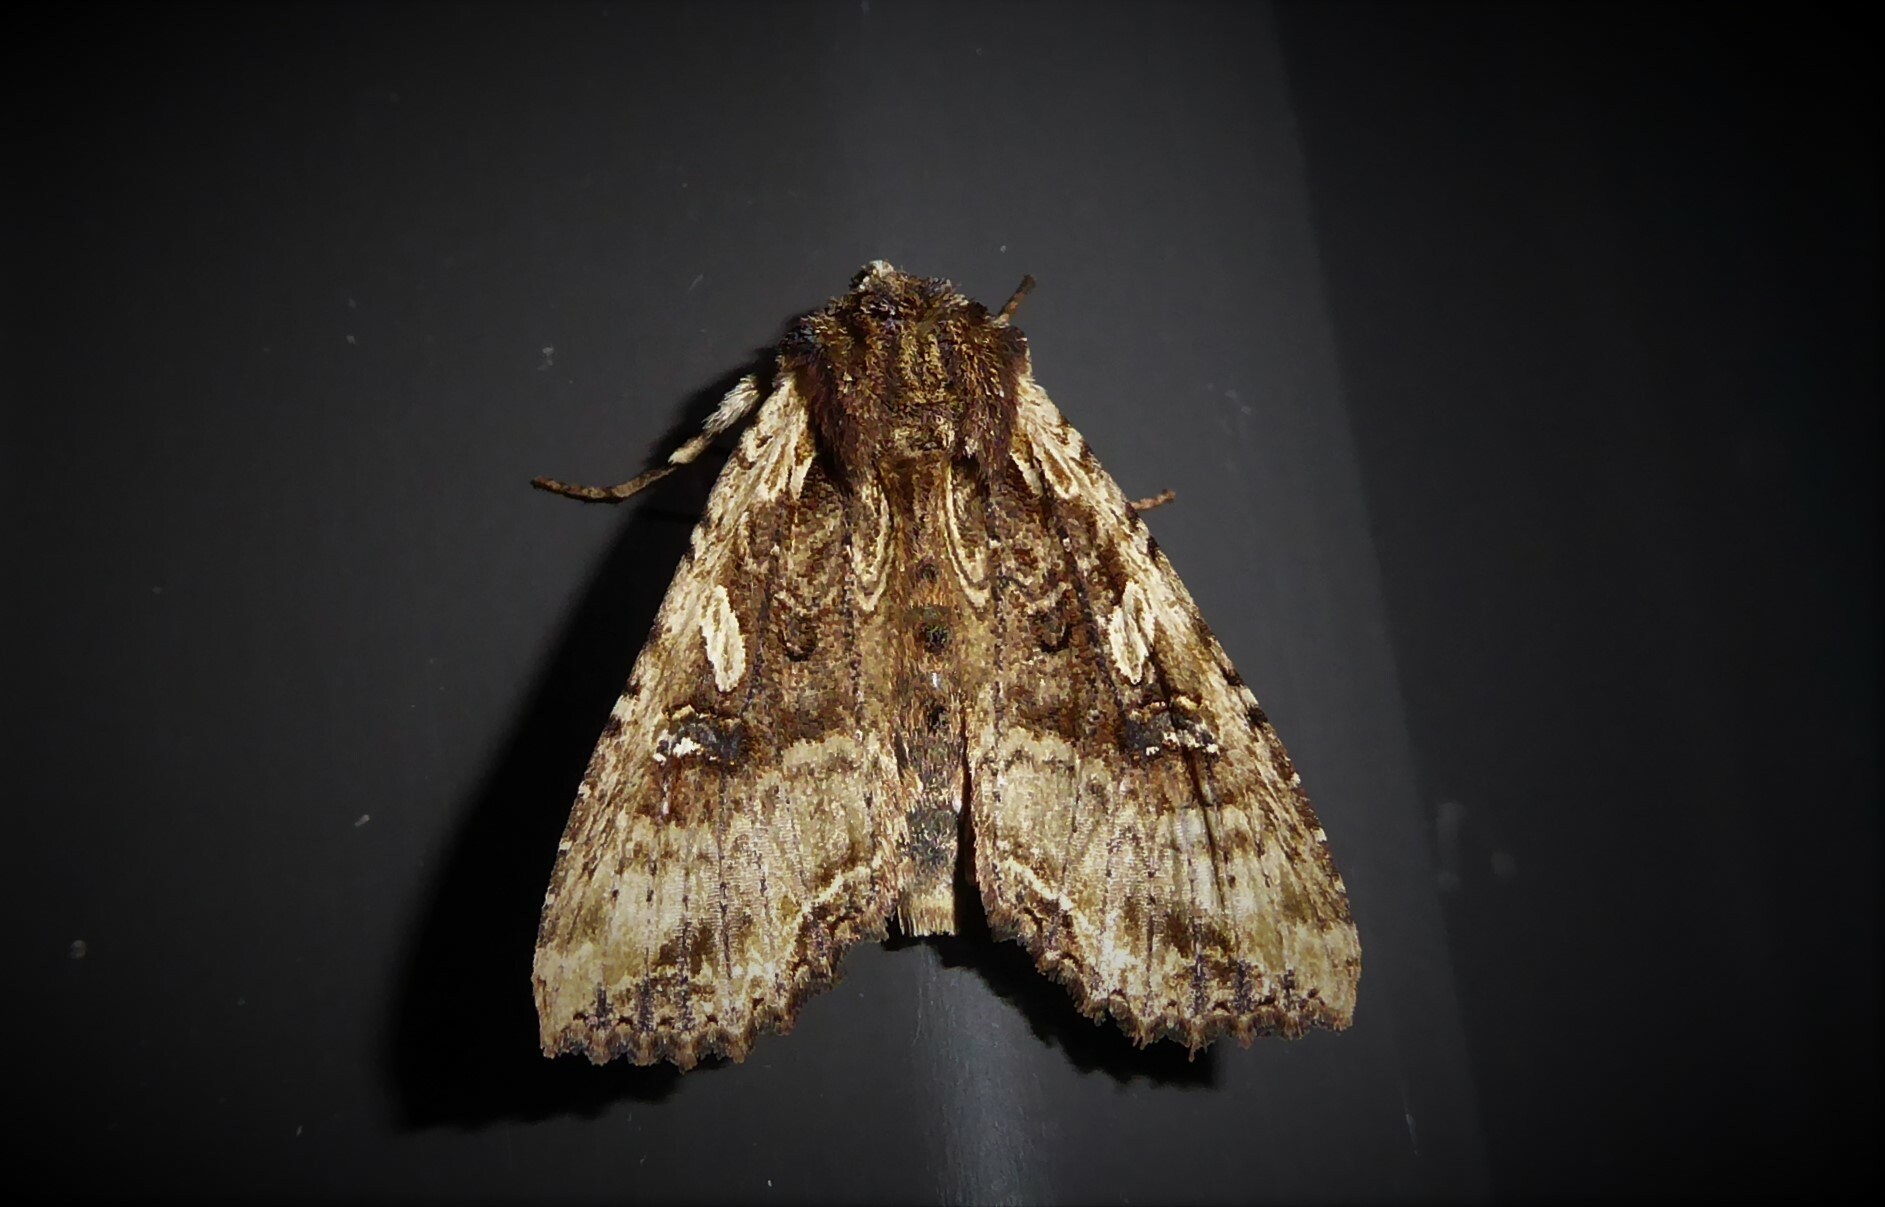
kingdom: Animalia
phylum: Arthropoda
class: Insecta
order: Lepidoptera
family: Noctuidae
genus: Meterana
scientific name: Meterana stipata
